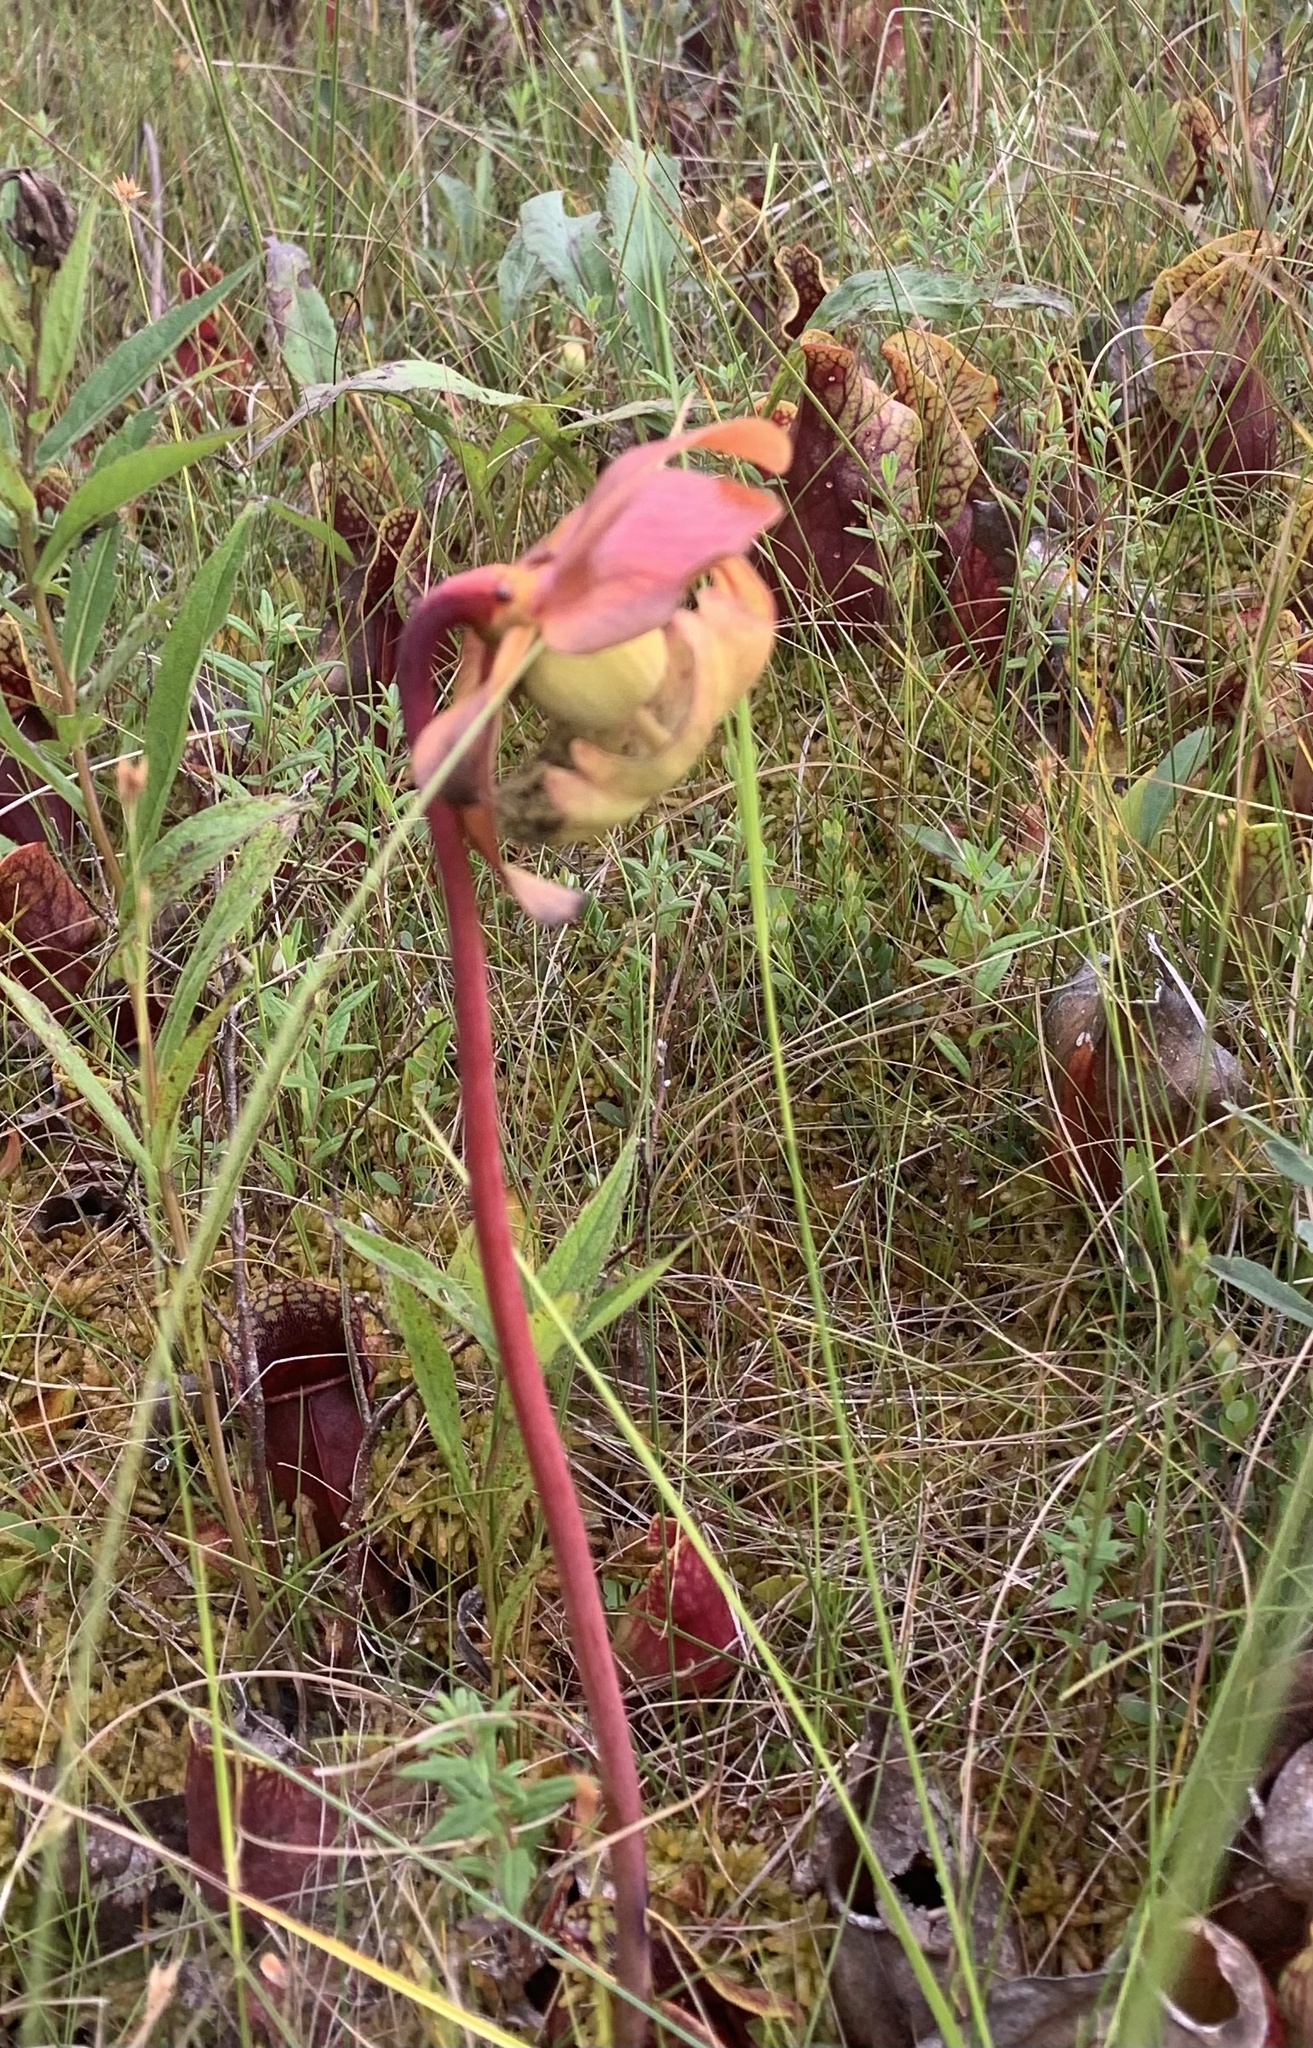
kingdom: Plantae
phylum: Tracheophyta
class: Magnoliopsida
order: Ericales
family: Sarraceniaceae
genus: Sarracenia
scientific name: Sarracenia purpurea
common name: Pitcherplant
